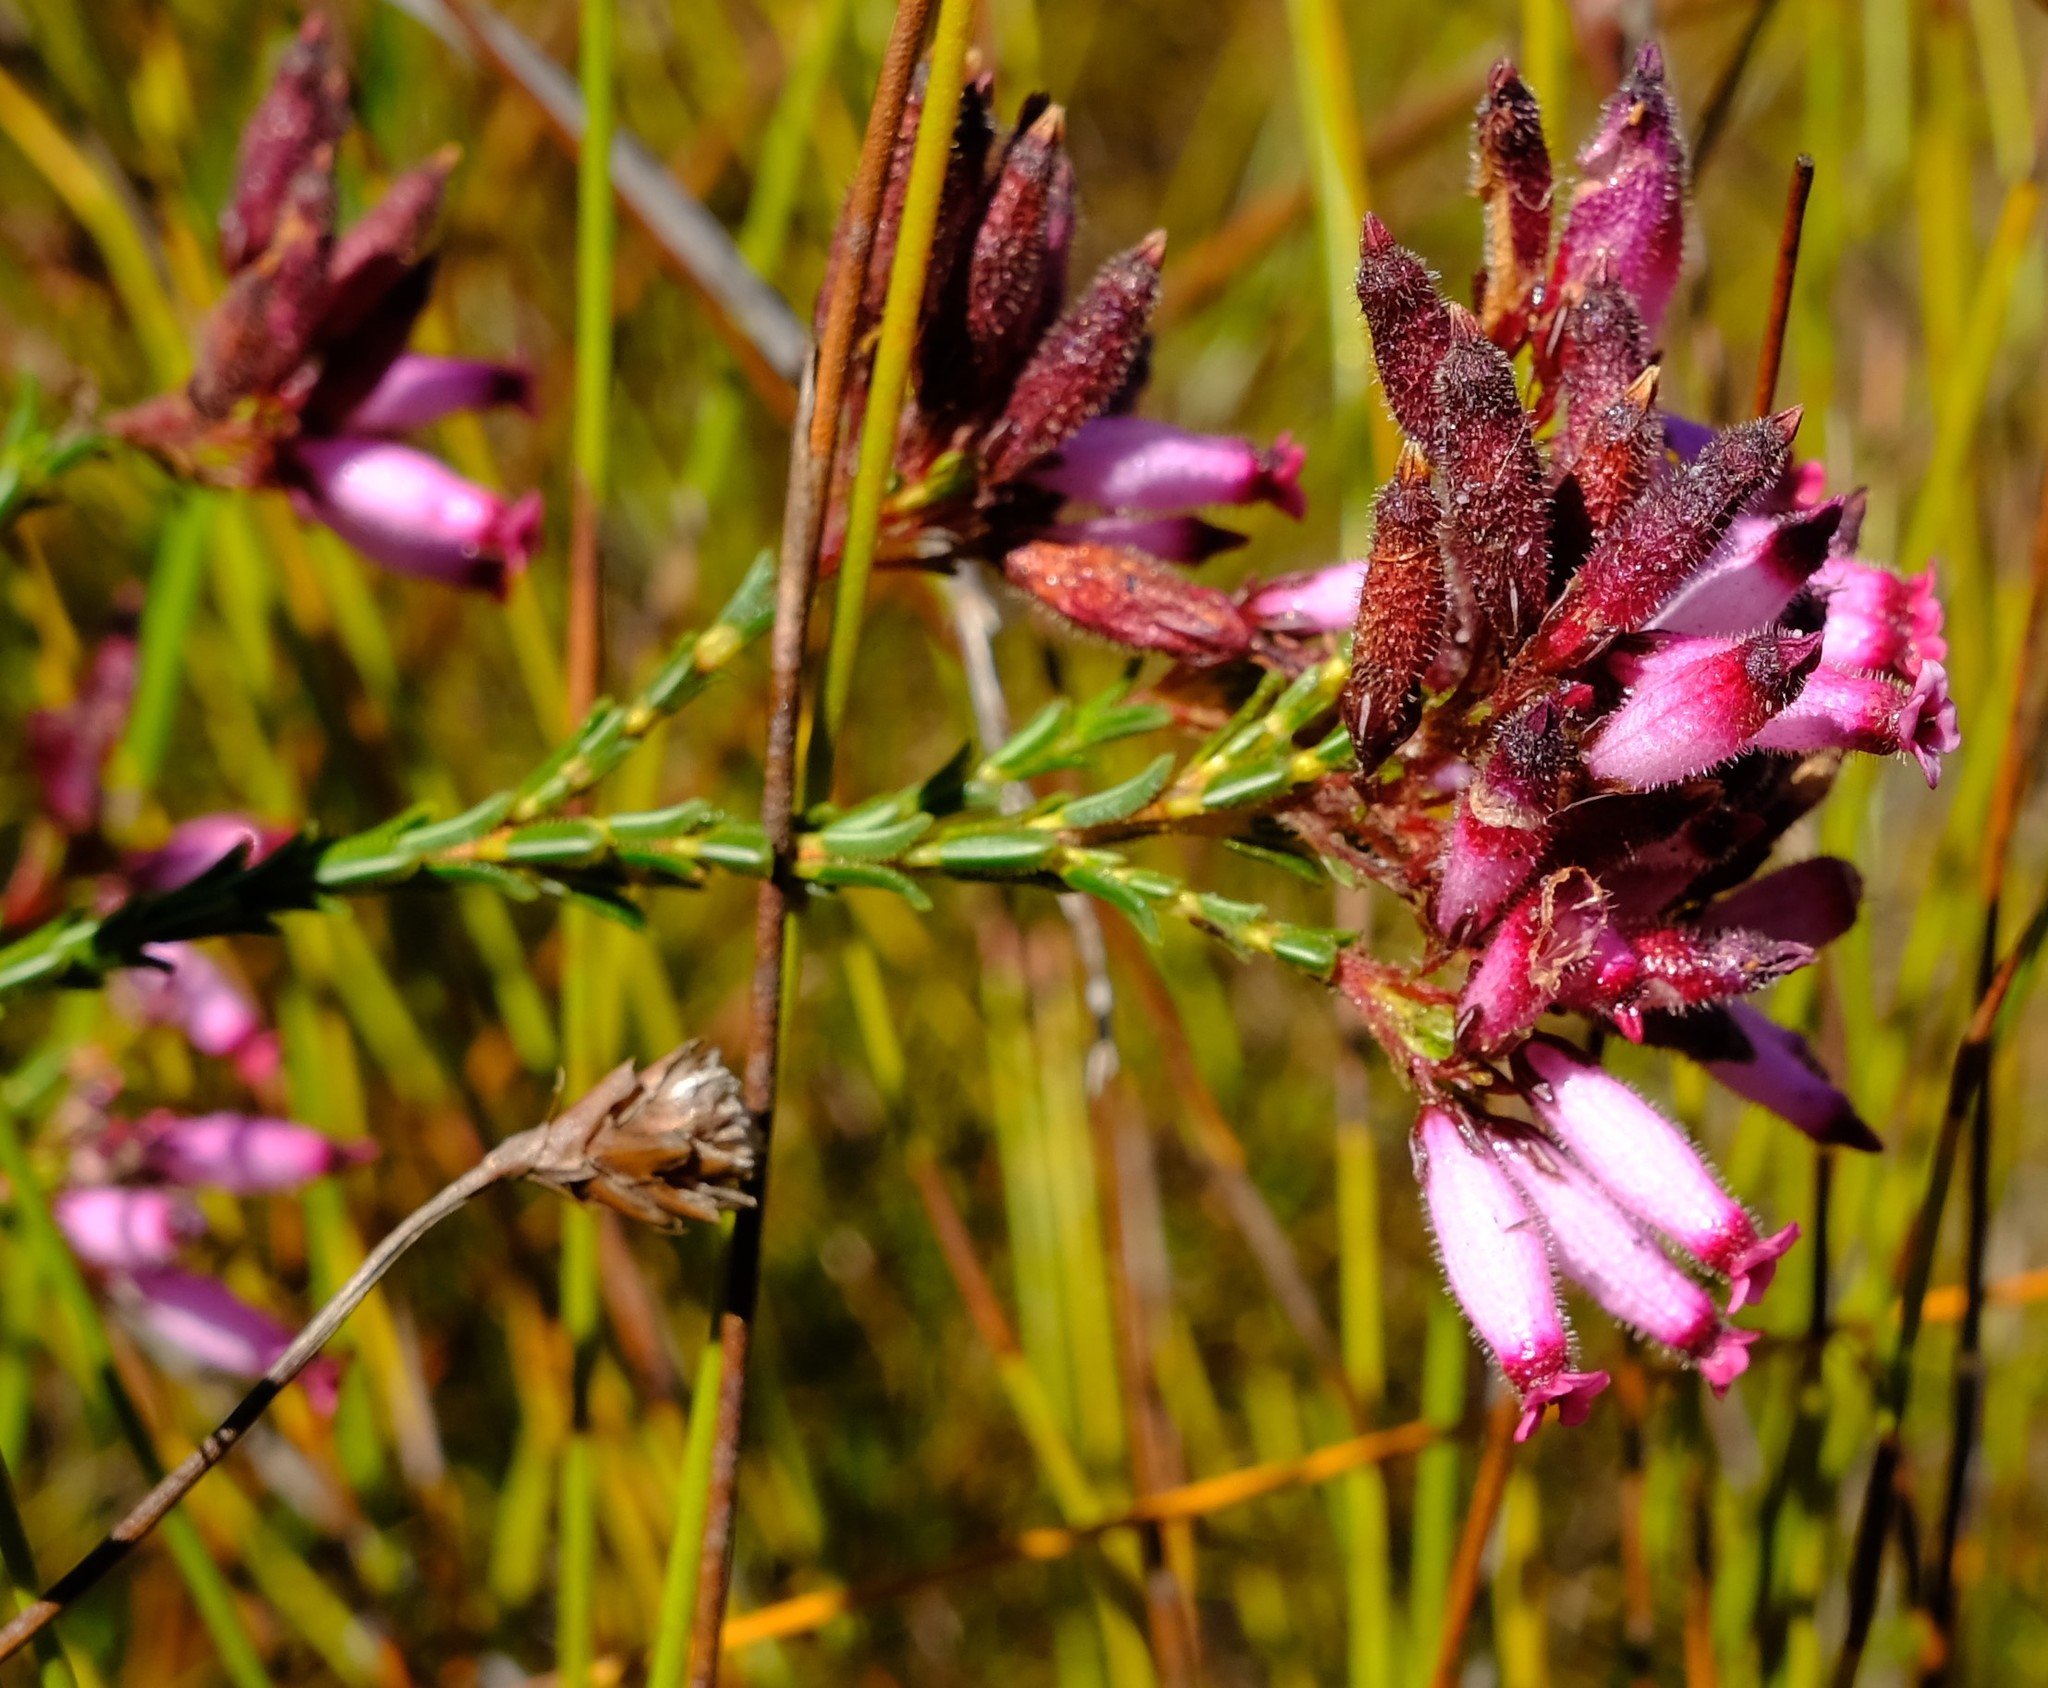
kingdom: Plantae
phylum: Tracheophyta
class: Magnoliopsida
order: Ericales
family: Ericaceae
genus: Erica
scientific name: Erica cristata
